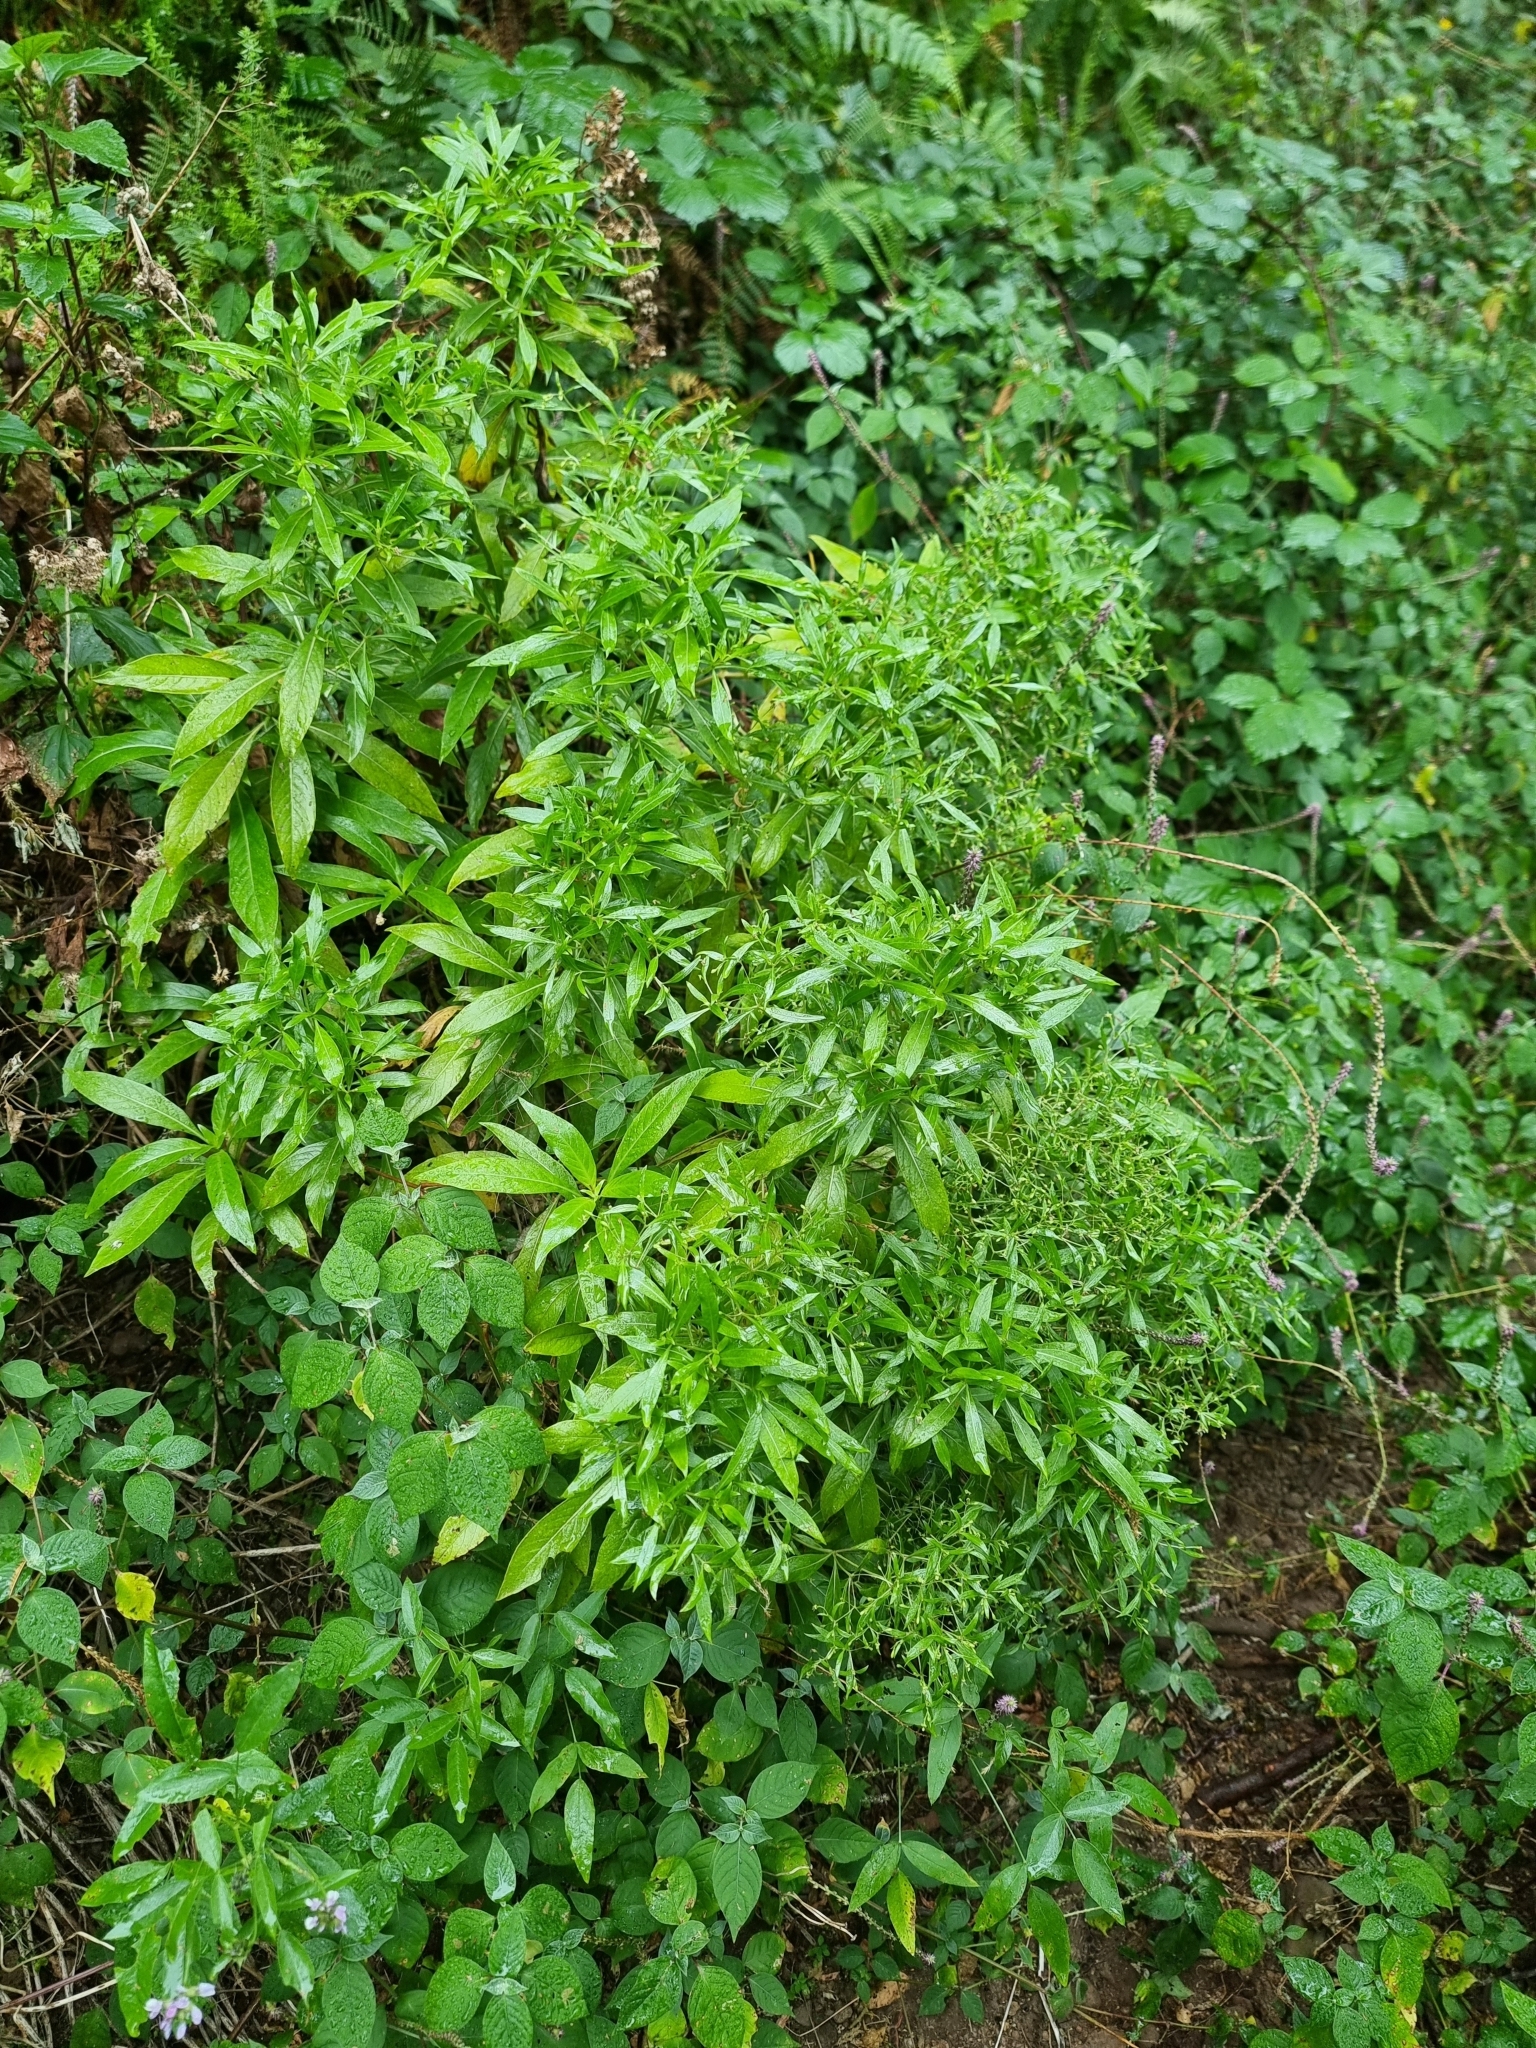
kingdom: Plantae
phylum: Tracheophyta
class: Magnoliopsida
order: Gentianales
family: Rubiaceae
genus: Phyllis
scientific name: Phyllis nobla
